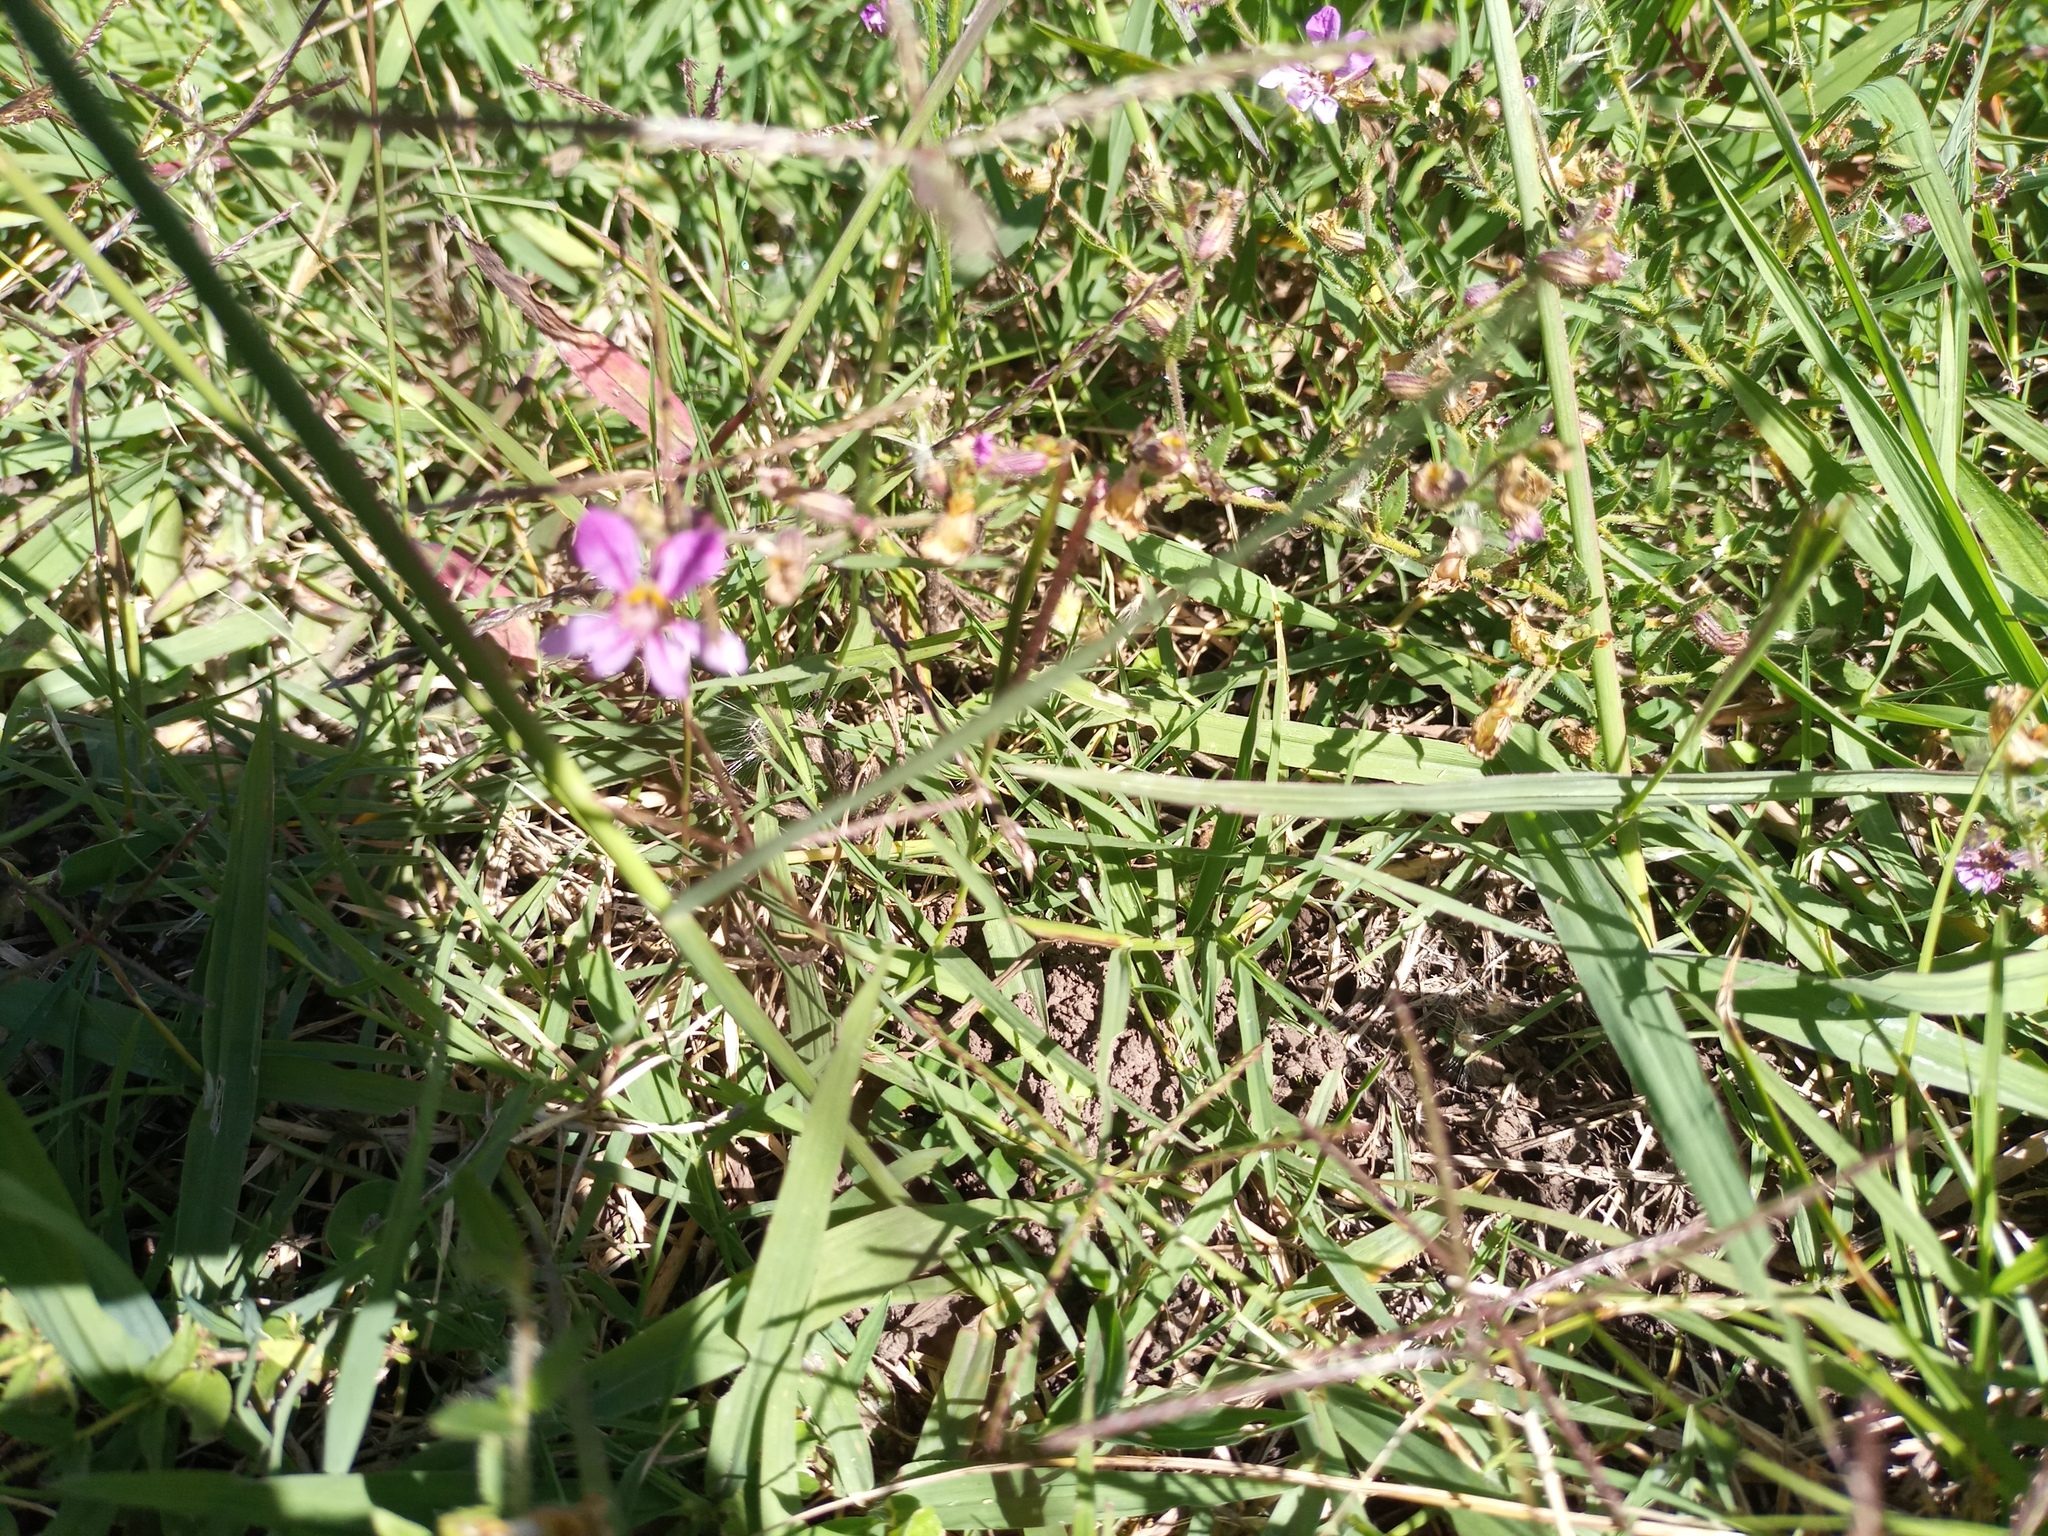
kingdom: Plantae
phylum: Tracheophyta
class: Magnoliopsida
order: Myrtales
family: Lythraceae
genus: Cuphea
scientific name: Cuphea glutinosa
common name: Sticky waxweed
